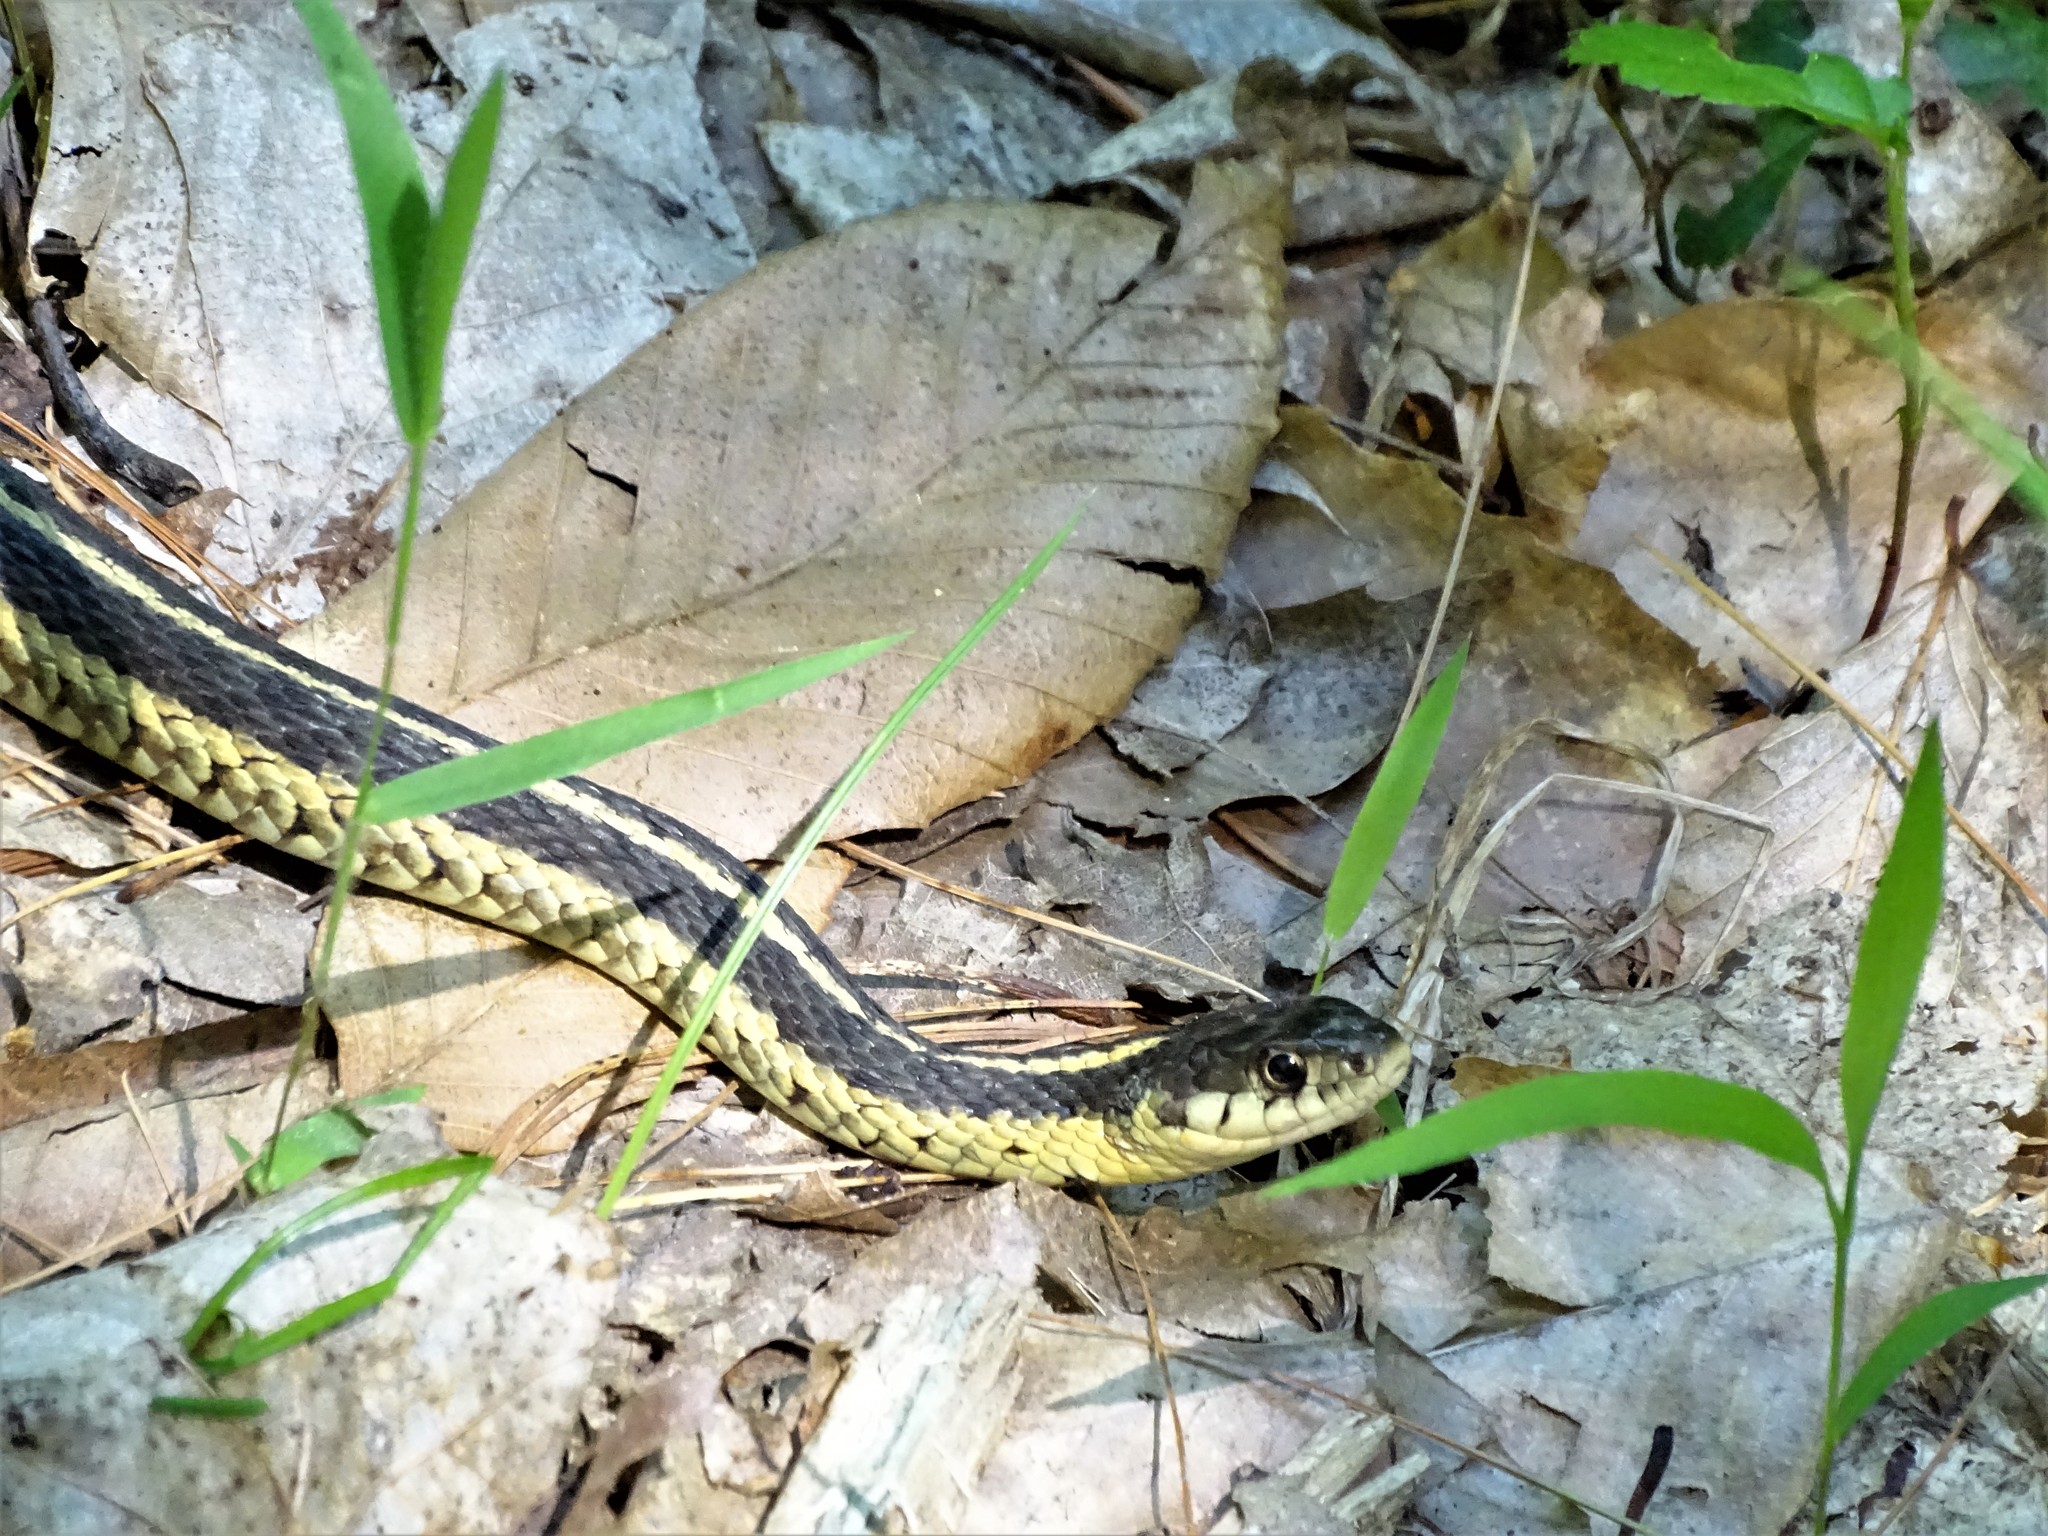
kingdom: Animalia
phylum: Chordata
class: Squamata
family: Colubridae
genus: Thamnophis
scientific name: Thamnophis sirtalis
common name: Common garter snake
